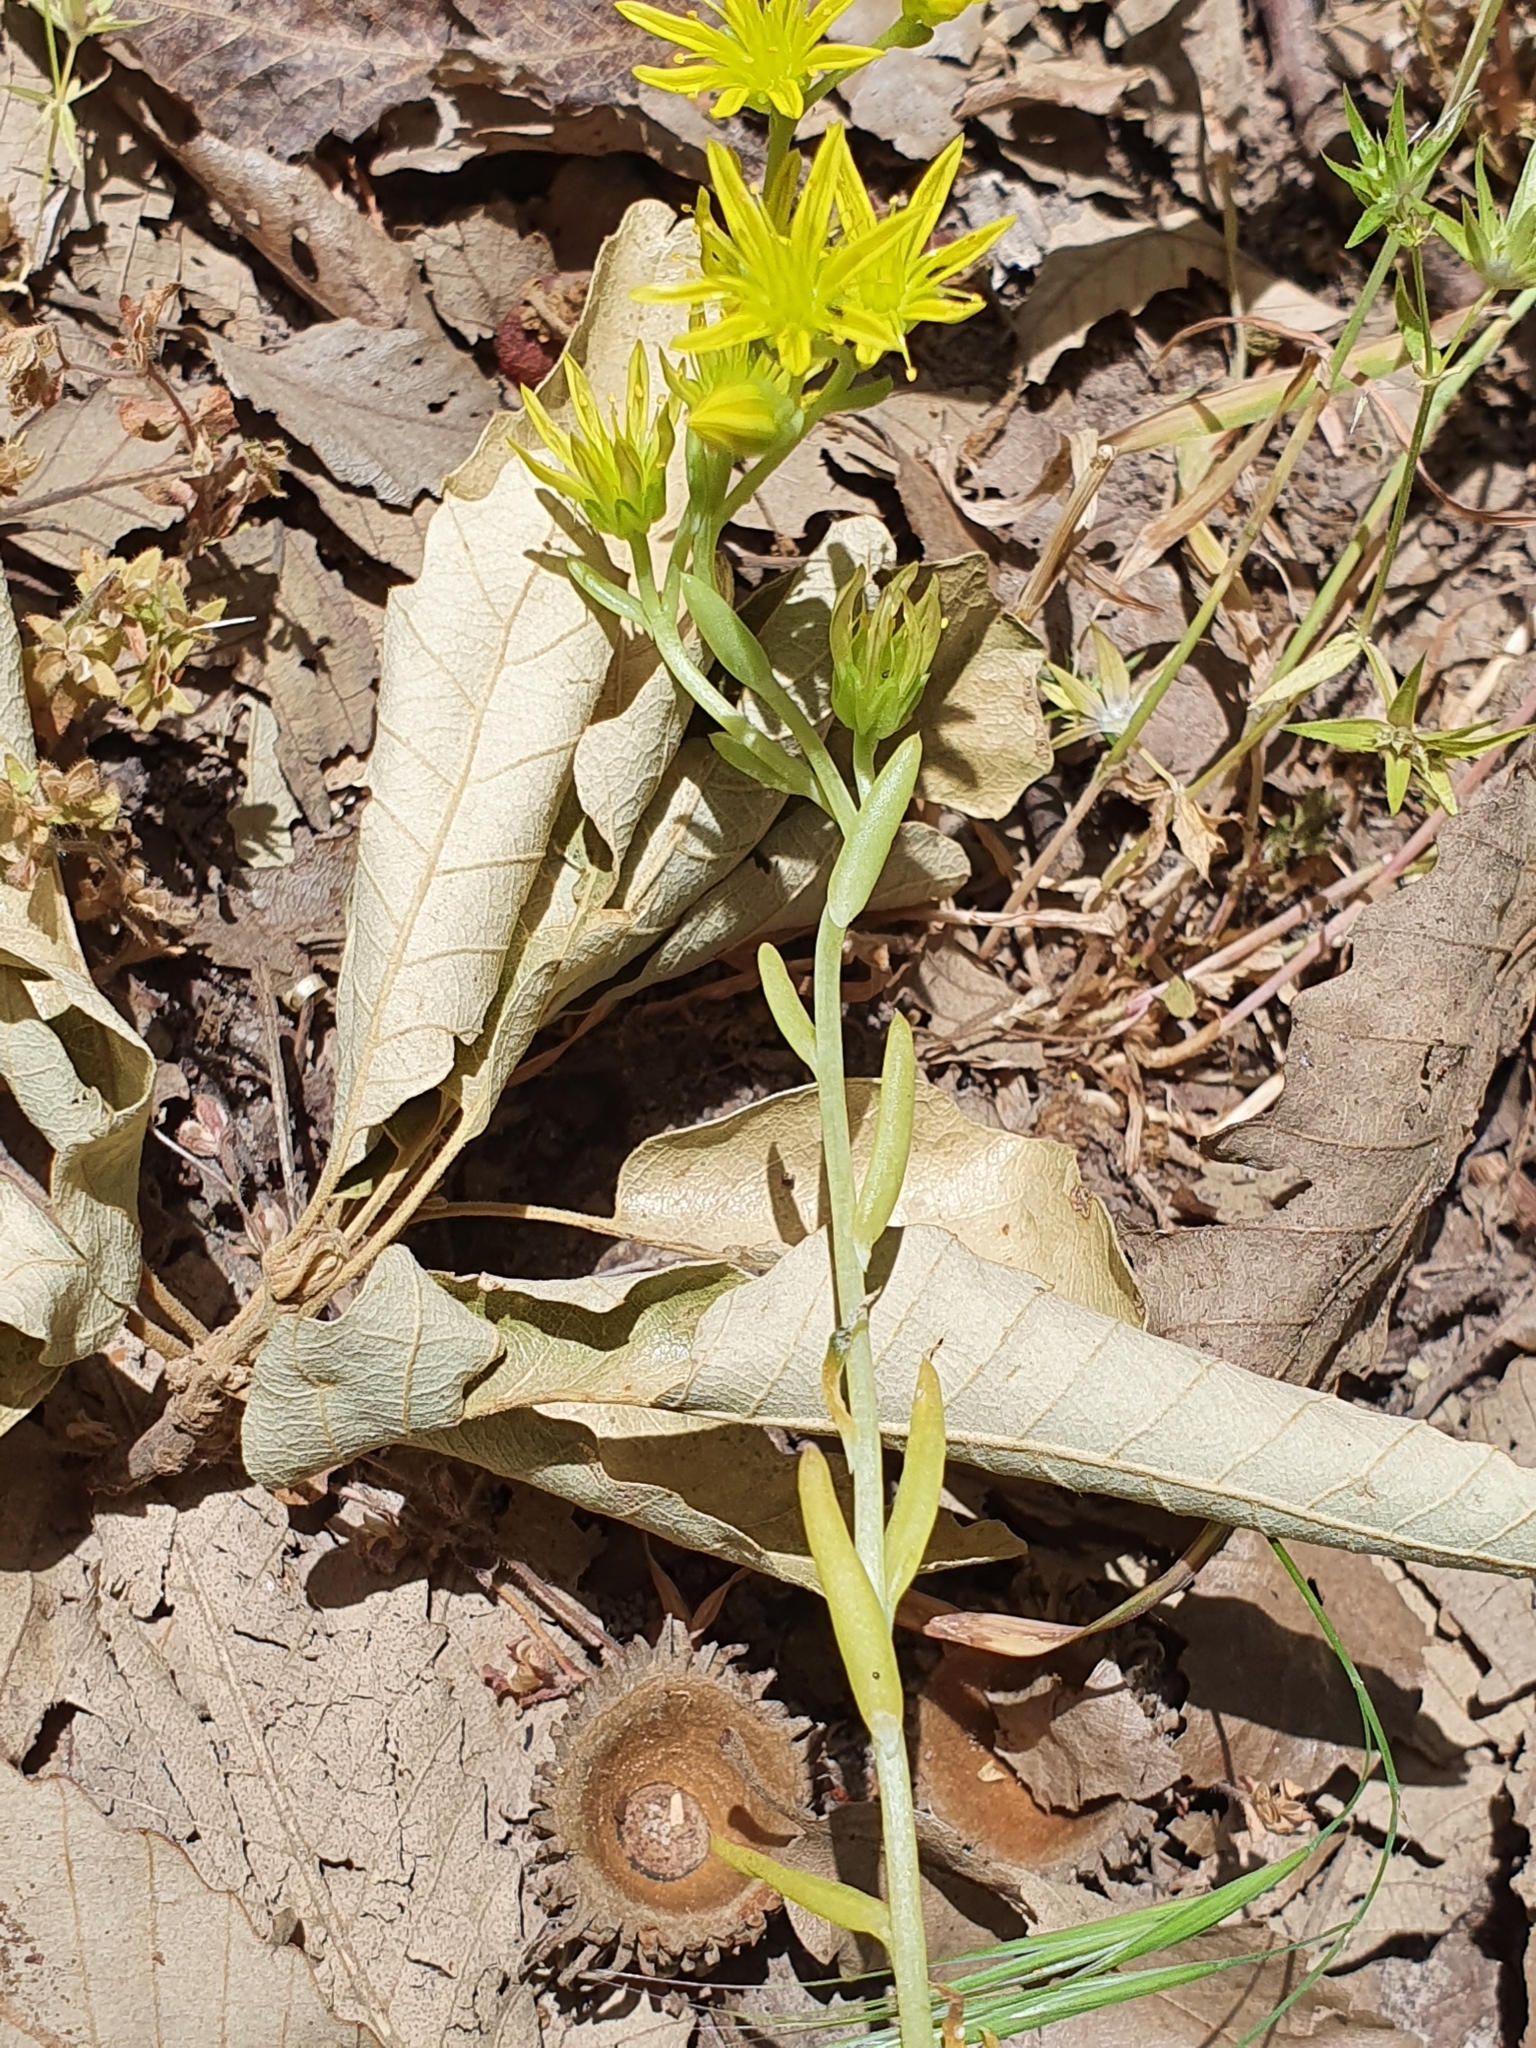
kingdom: Plantae
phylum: Tracheophyta
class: Magnoliopsida
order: Saxifragales
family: Crassulaceae
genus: Petrosedum
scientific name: Petrosedum amplexicaule
